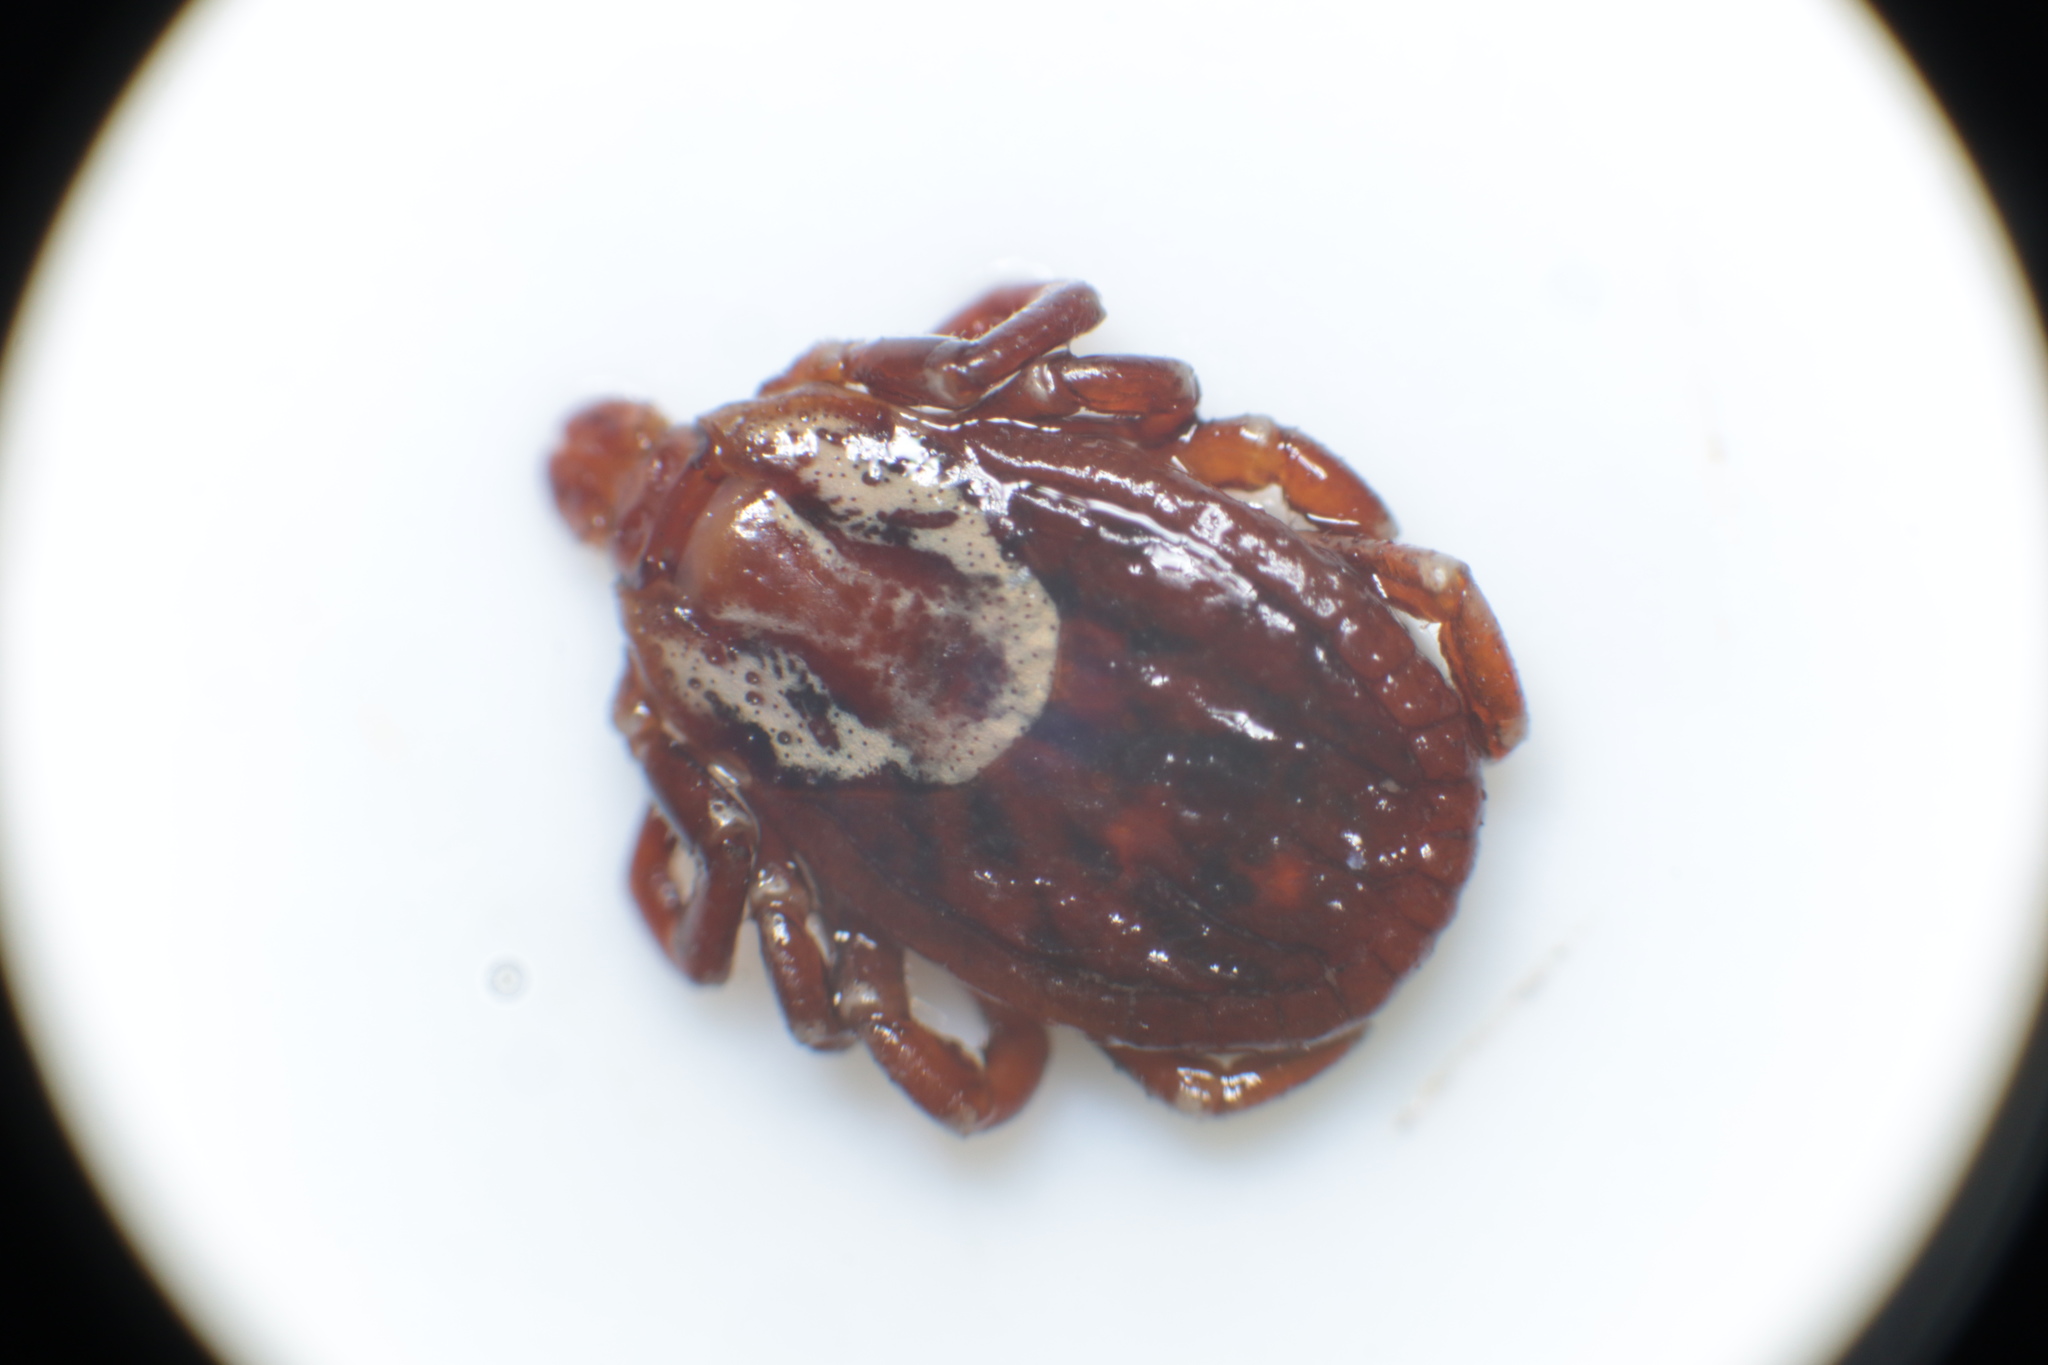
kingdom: Animalia
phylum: Arthropoda
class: Arachnida
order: Ixodida
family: Ixodidae
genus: Dermacentor
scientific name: Dermacentor variabilis
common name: American dog tick
